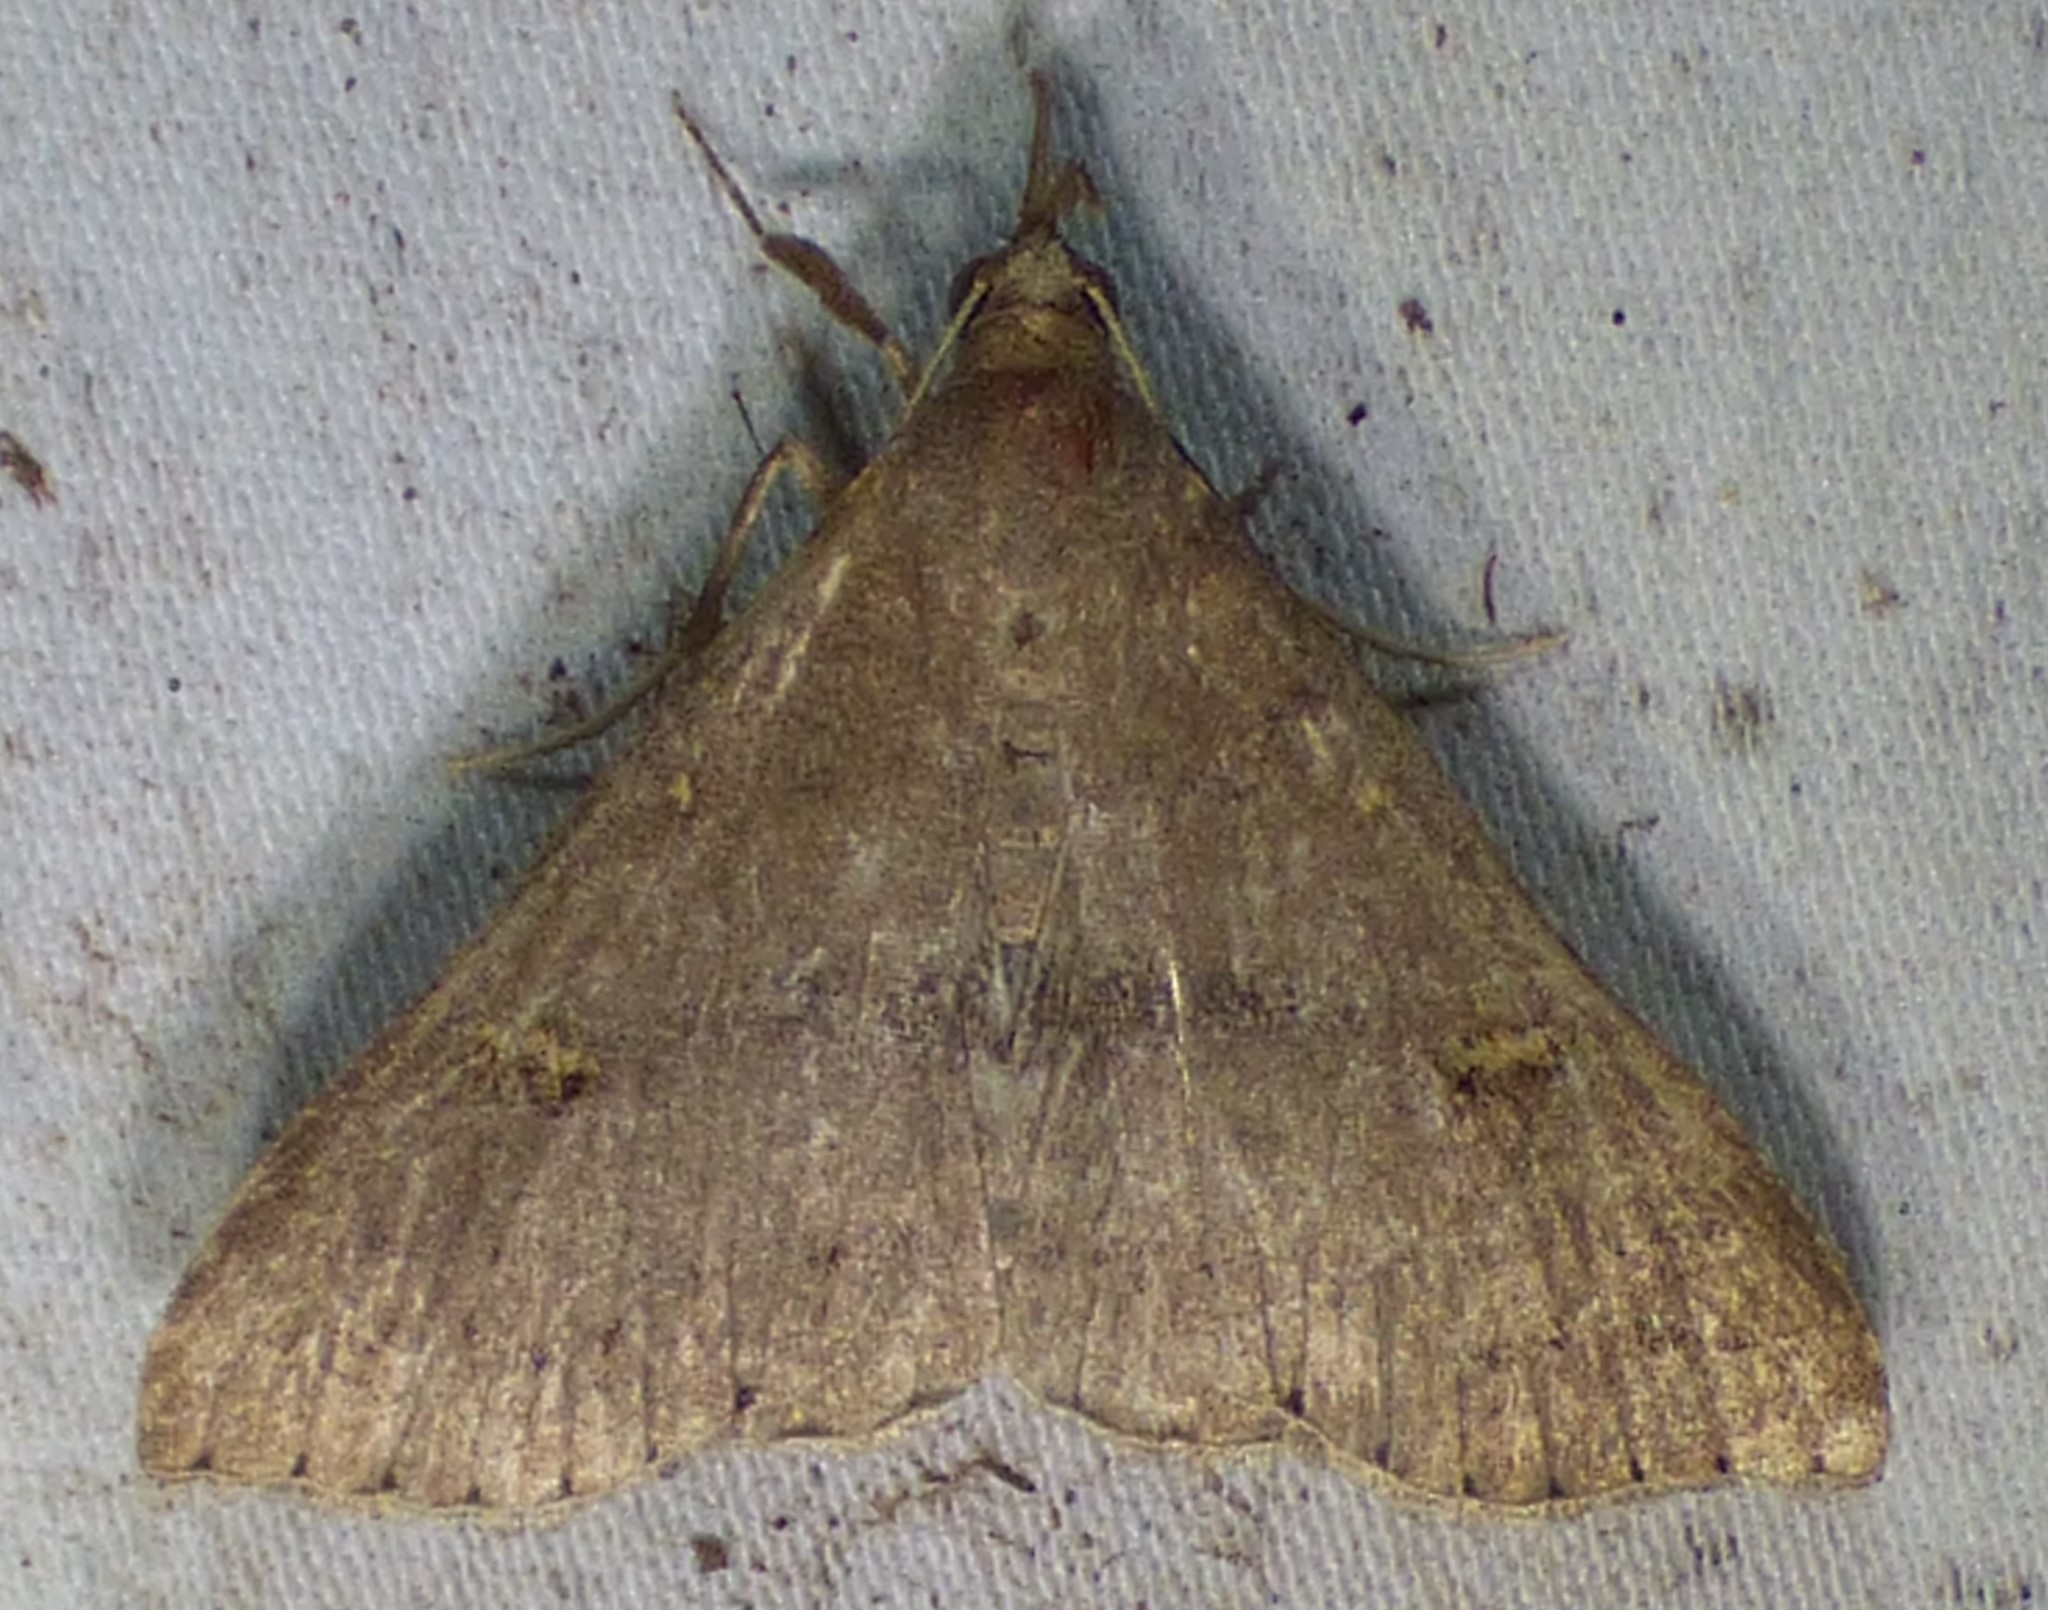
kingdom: Animalia
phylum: Arthropoda
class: Insecta
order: Lepidoptera
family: Erebidae
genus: Renia
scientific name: Renia adspergillus
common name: Speckled renia moth
